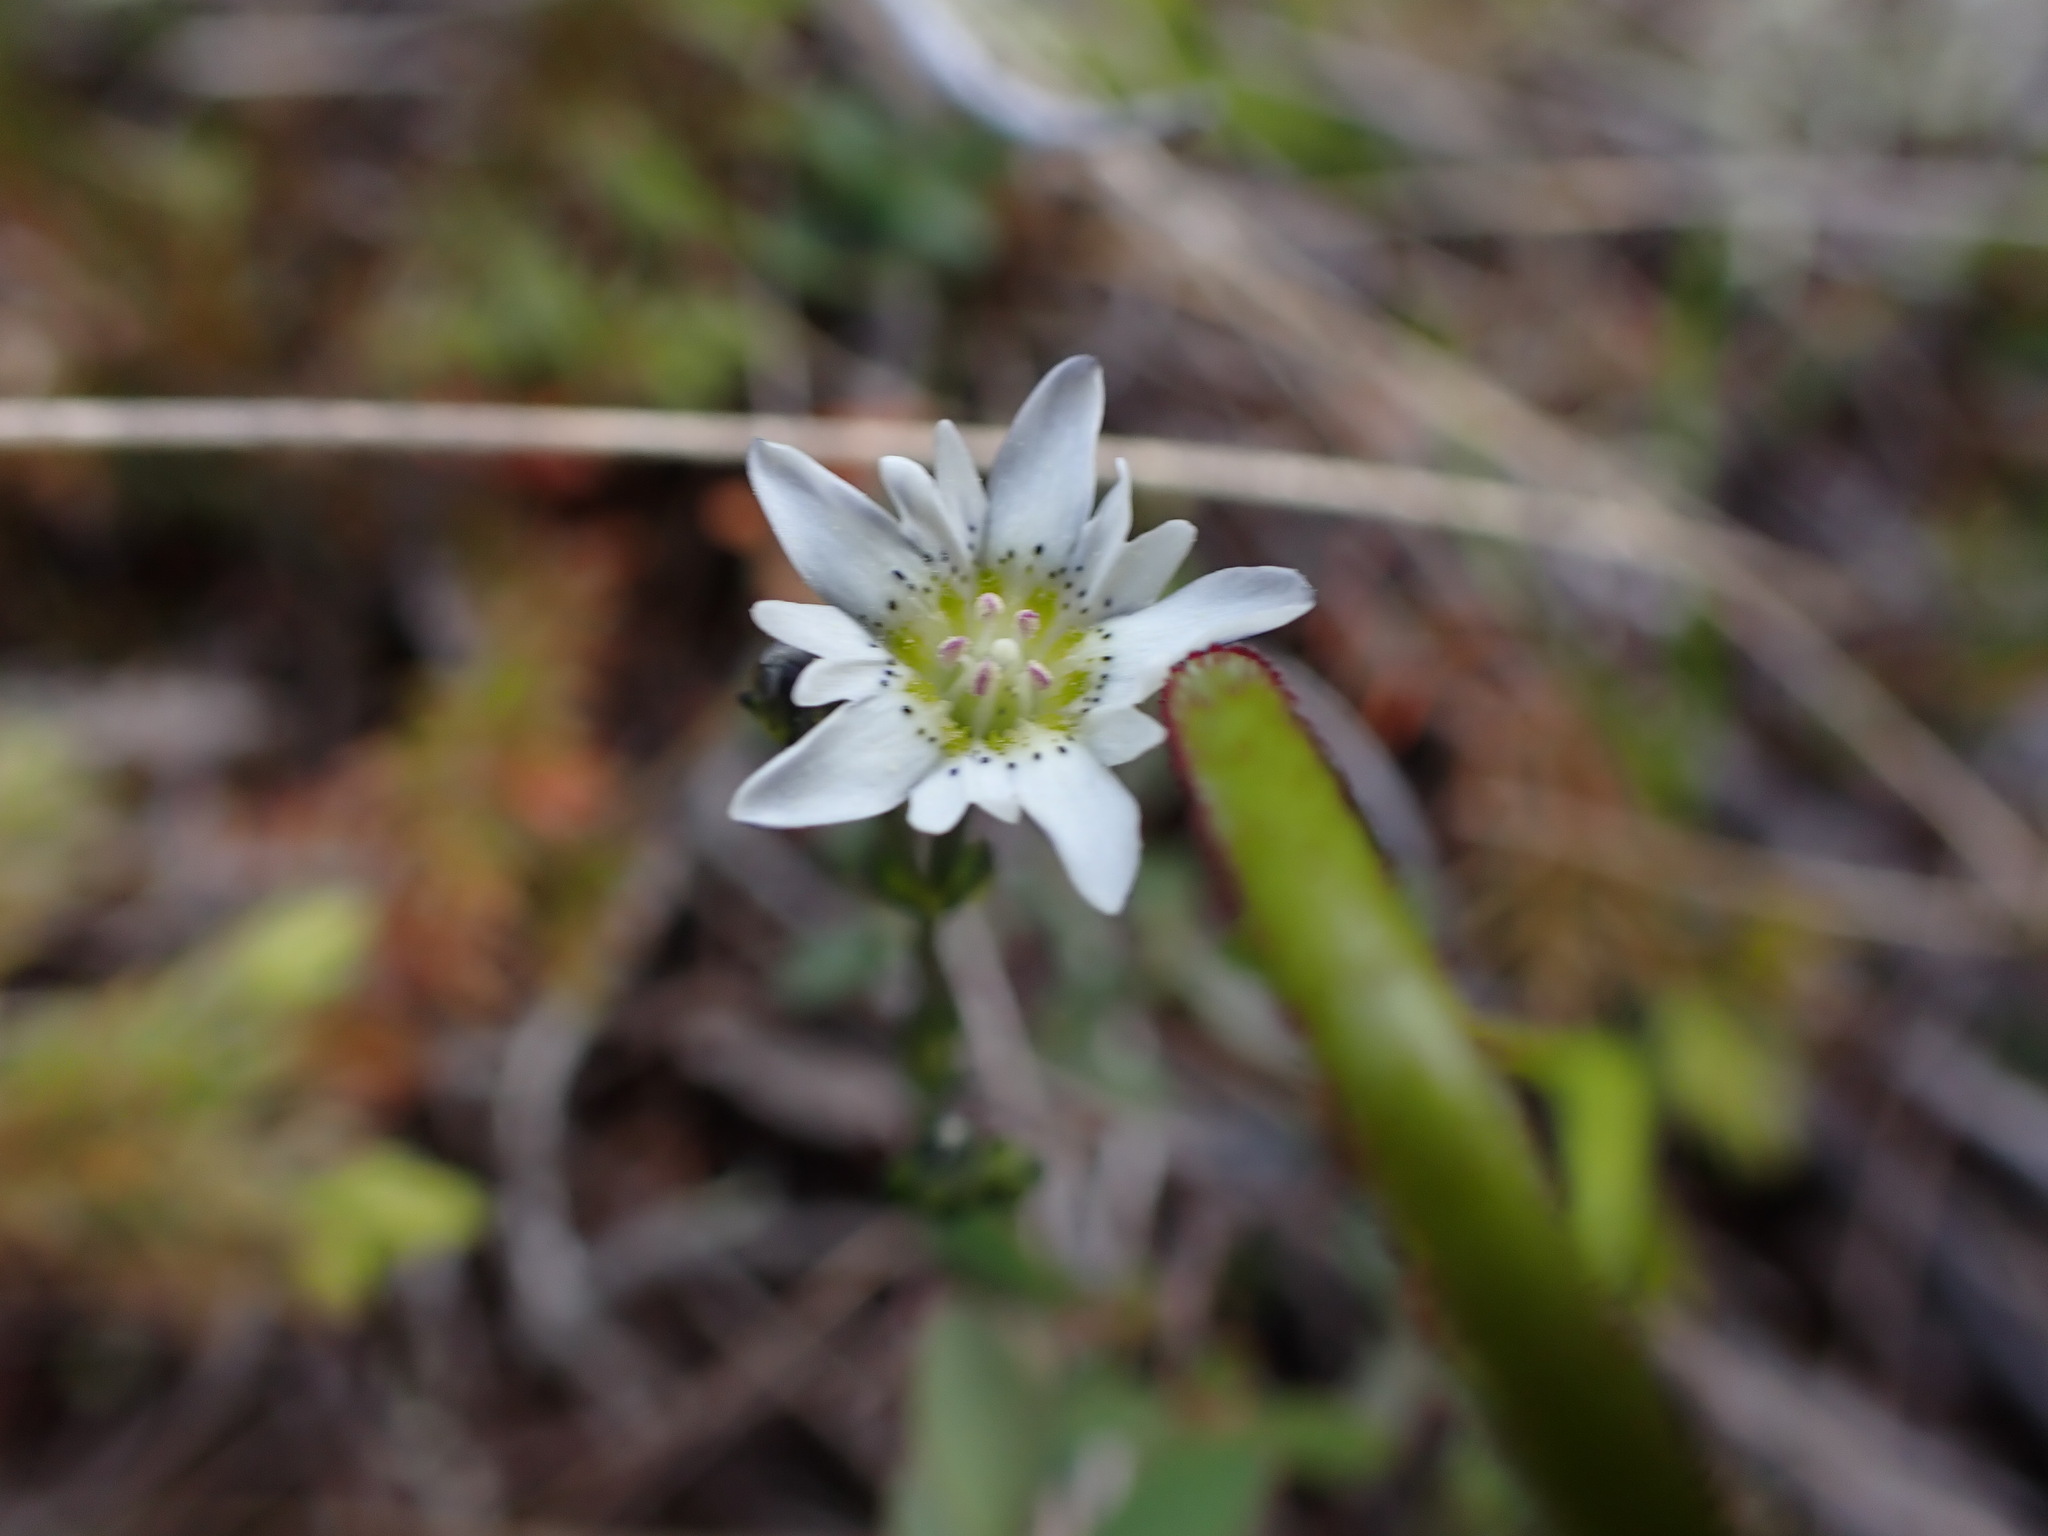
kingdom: Plantae
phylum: Tracheophyta
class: Magnoliopsida
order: Gentianales
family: Gentianaceae
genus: Gentiana
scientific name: Gentiana douglasiana
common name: Swamp gentian
